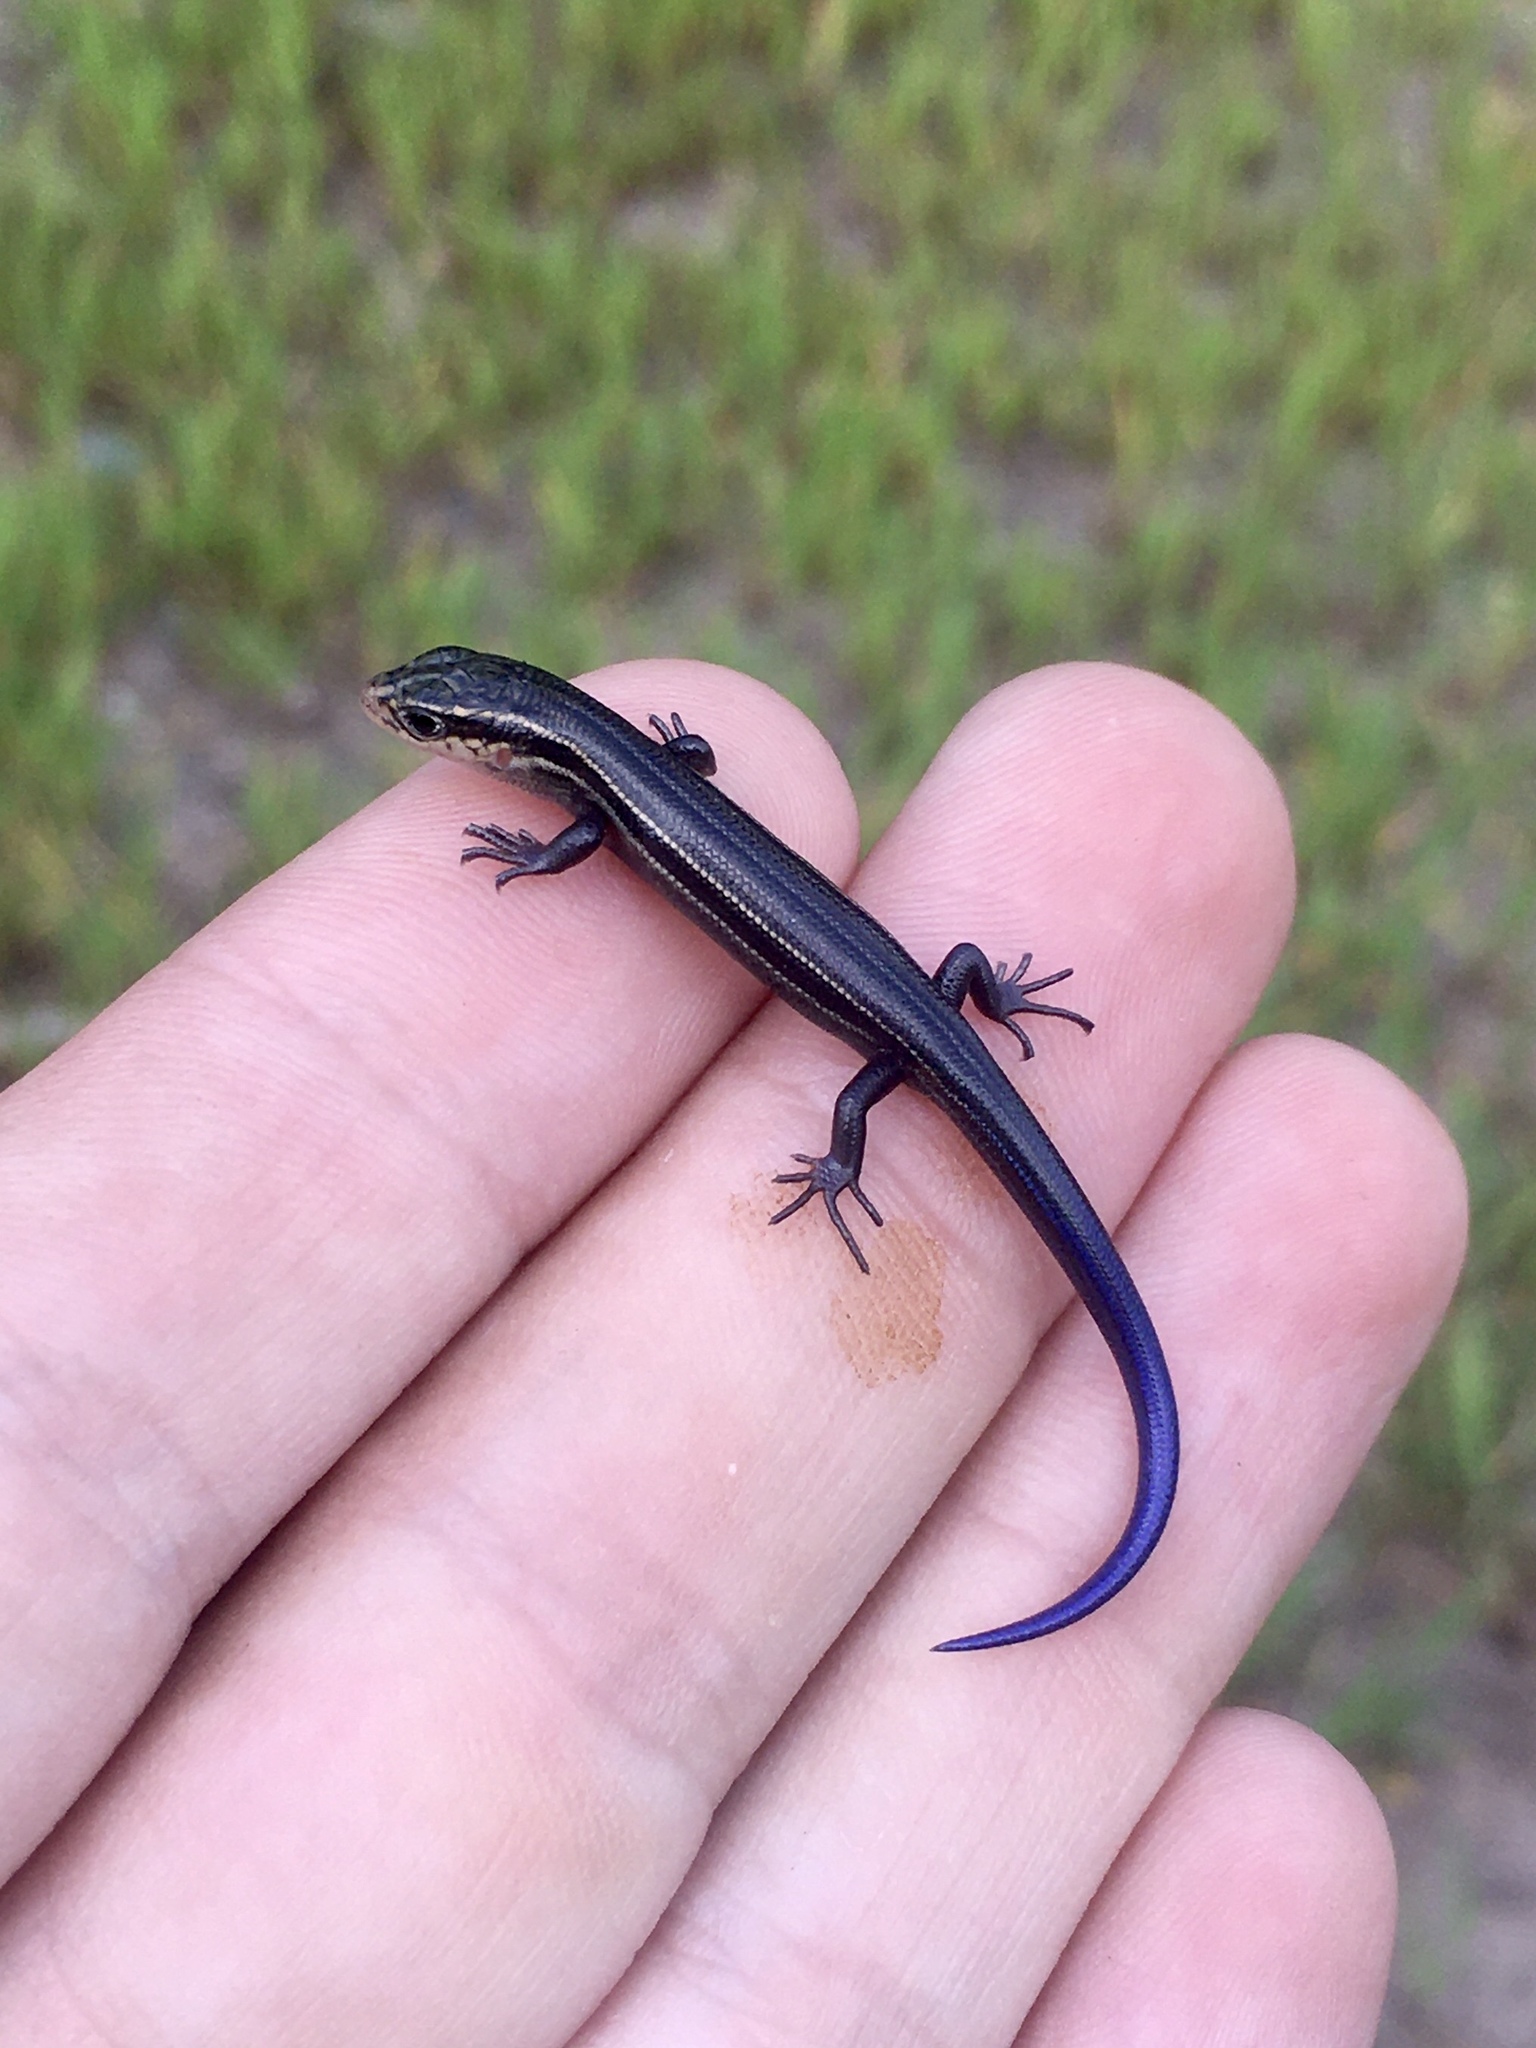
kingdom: Animalia
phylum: Chordata
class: Squamata
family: Scincidae
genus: Plestiodon
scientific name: Plestiodon septentrionalis
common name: Northern prairie skink
